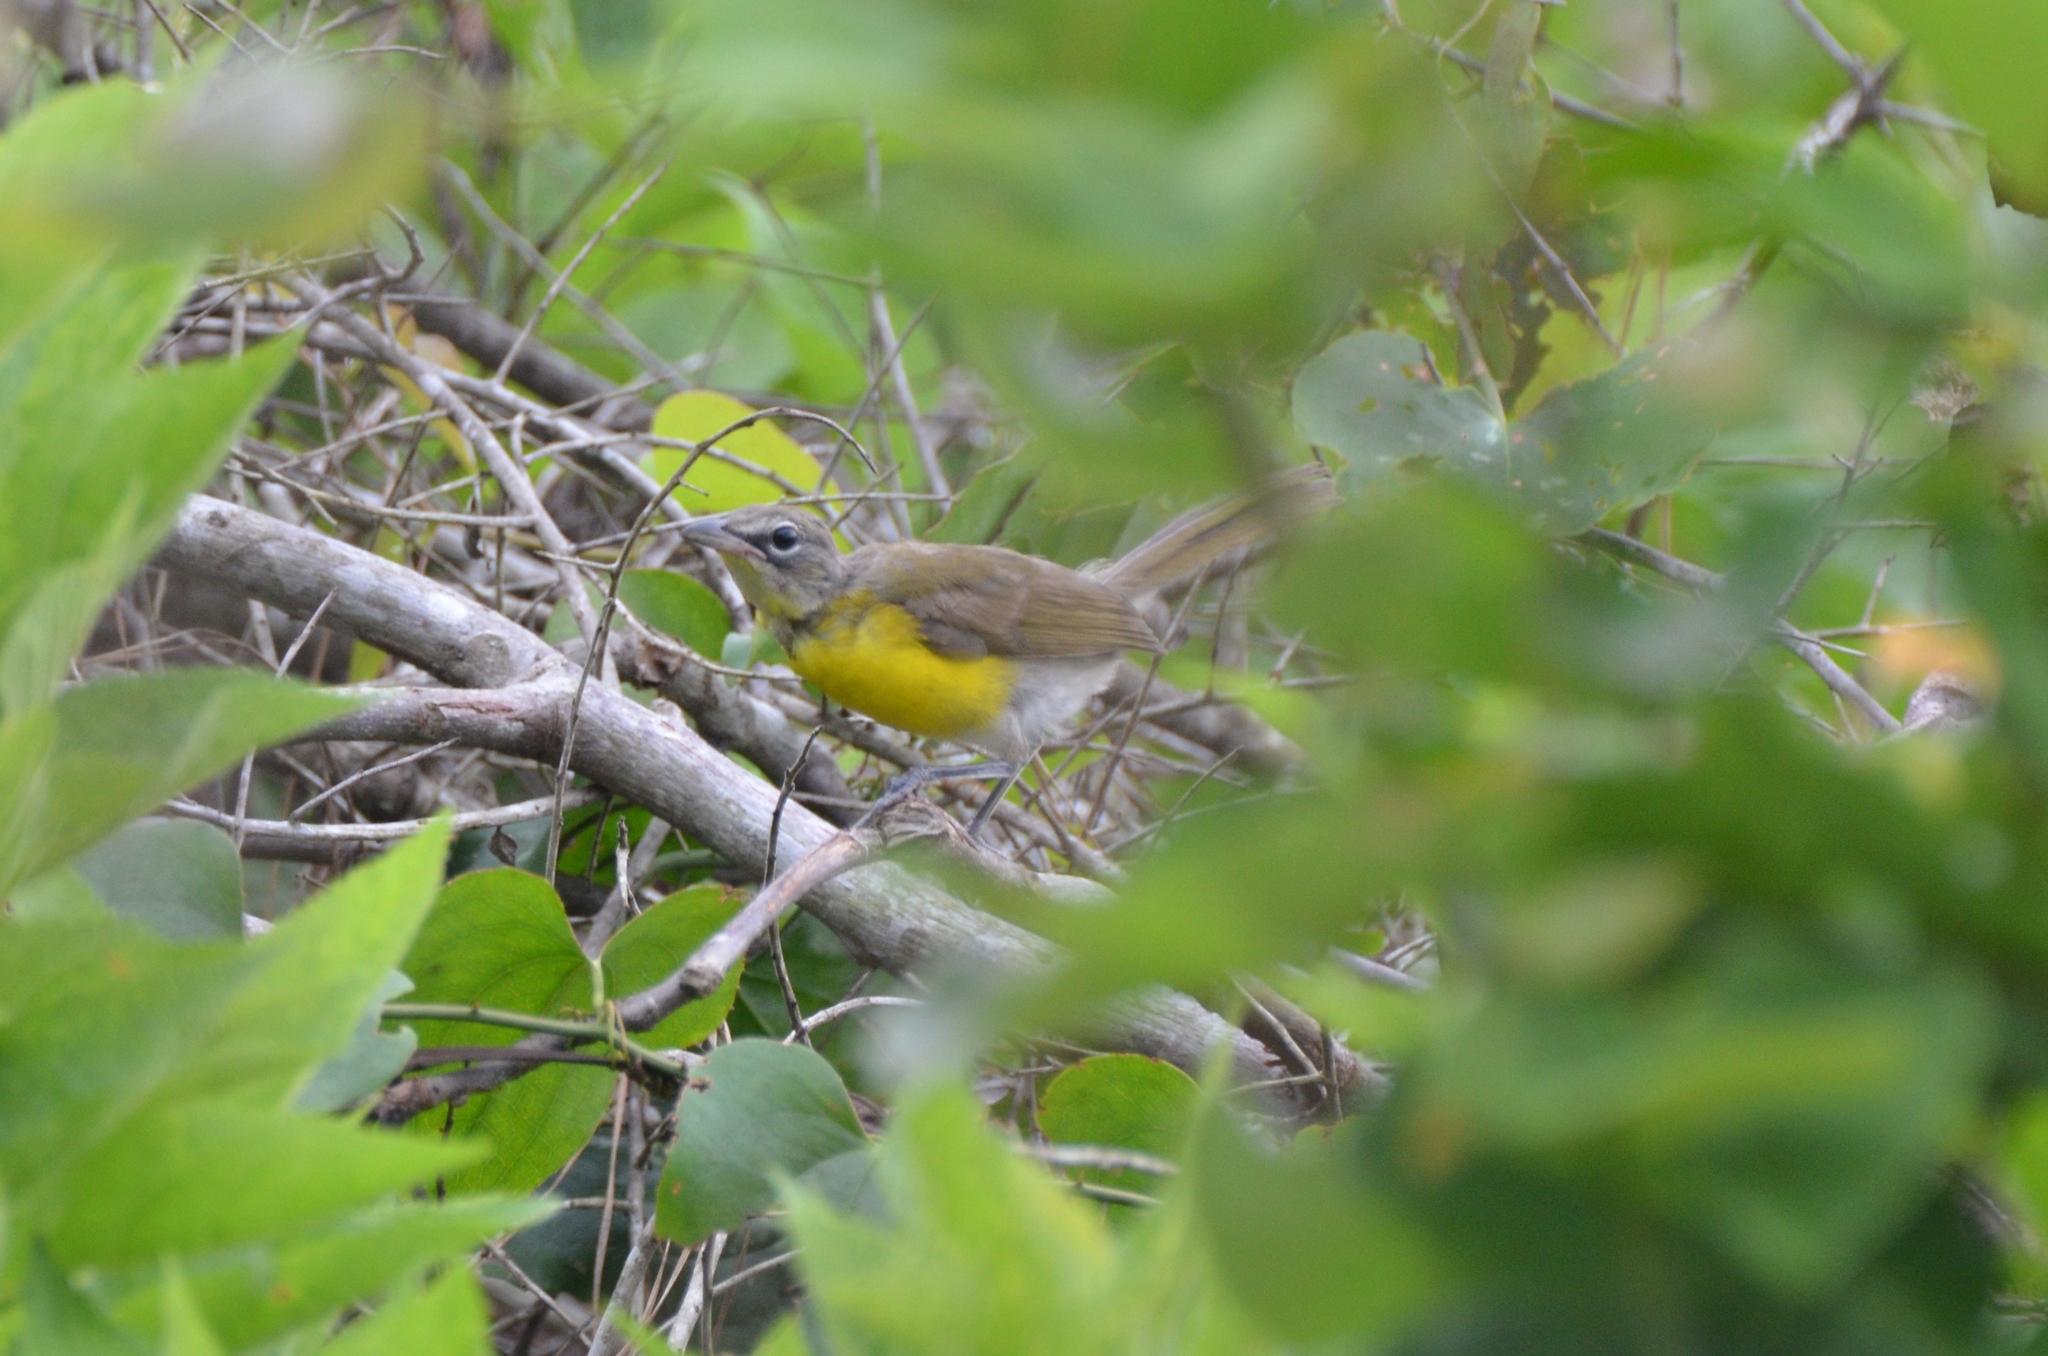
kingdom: Animalia
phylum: Chordata
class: Aves
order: Passeriformes
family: Parulidae
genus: Icteria
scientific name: Icteria virens
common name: Yellow-breasted chat
